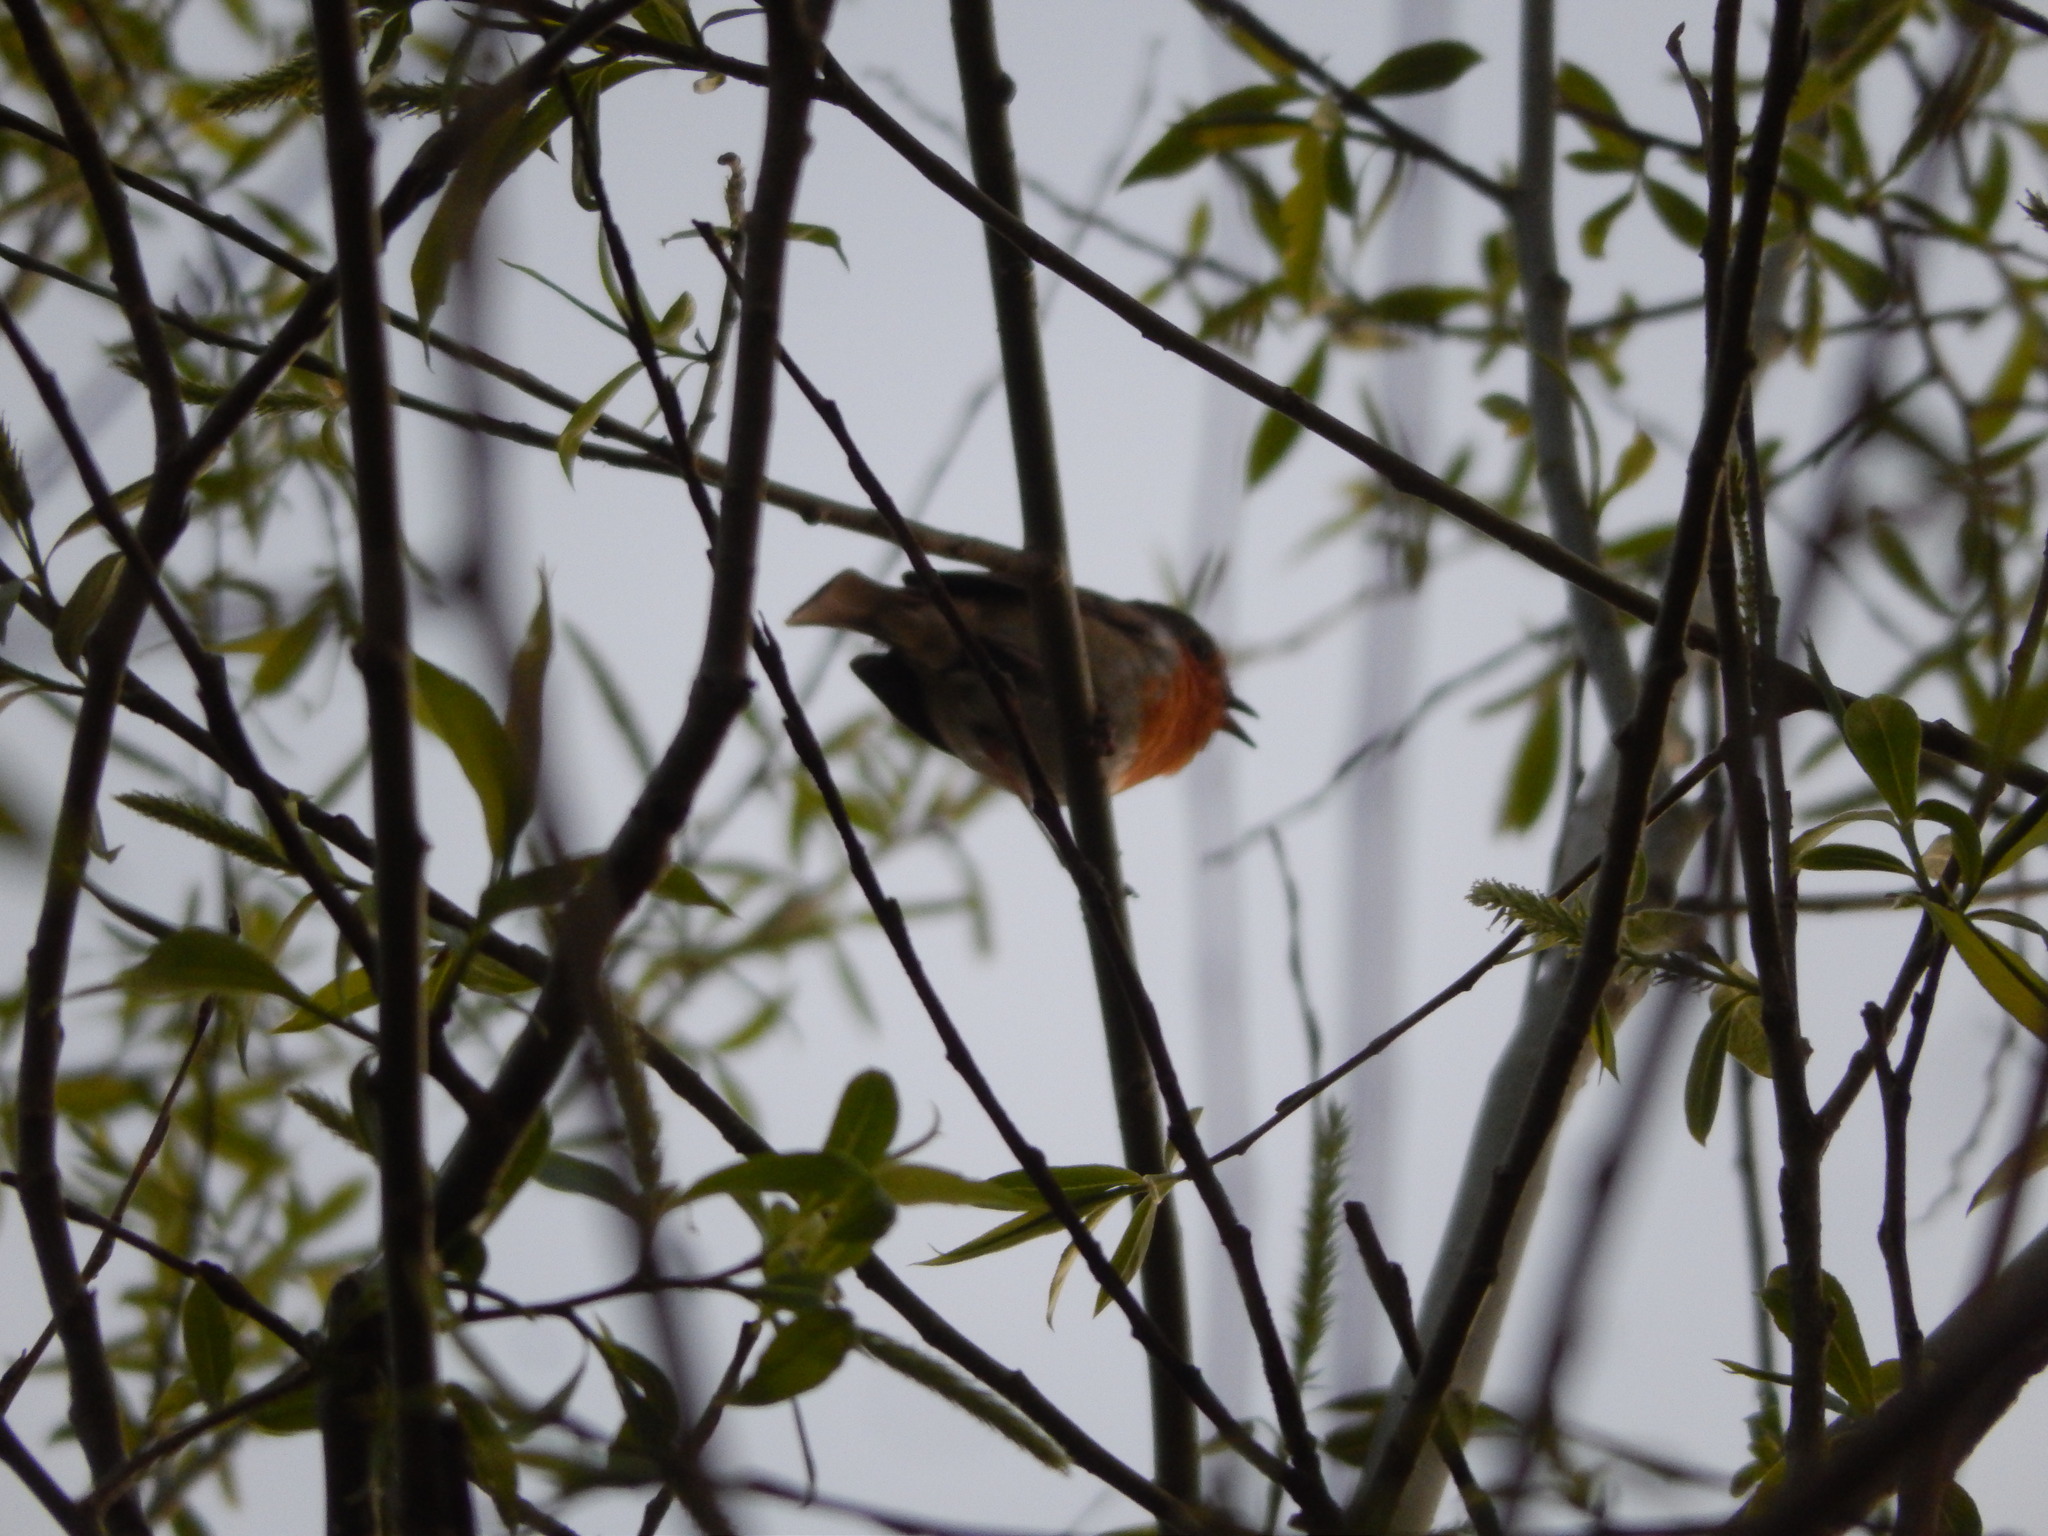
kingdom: Animalia
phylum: Chordata
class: Aves
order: Passeriformes
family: Muscicapidae
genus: Erithacus
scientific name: Erithacus rubecula
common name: European robin
